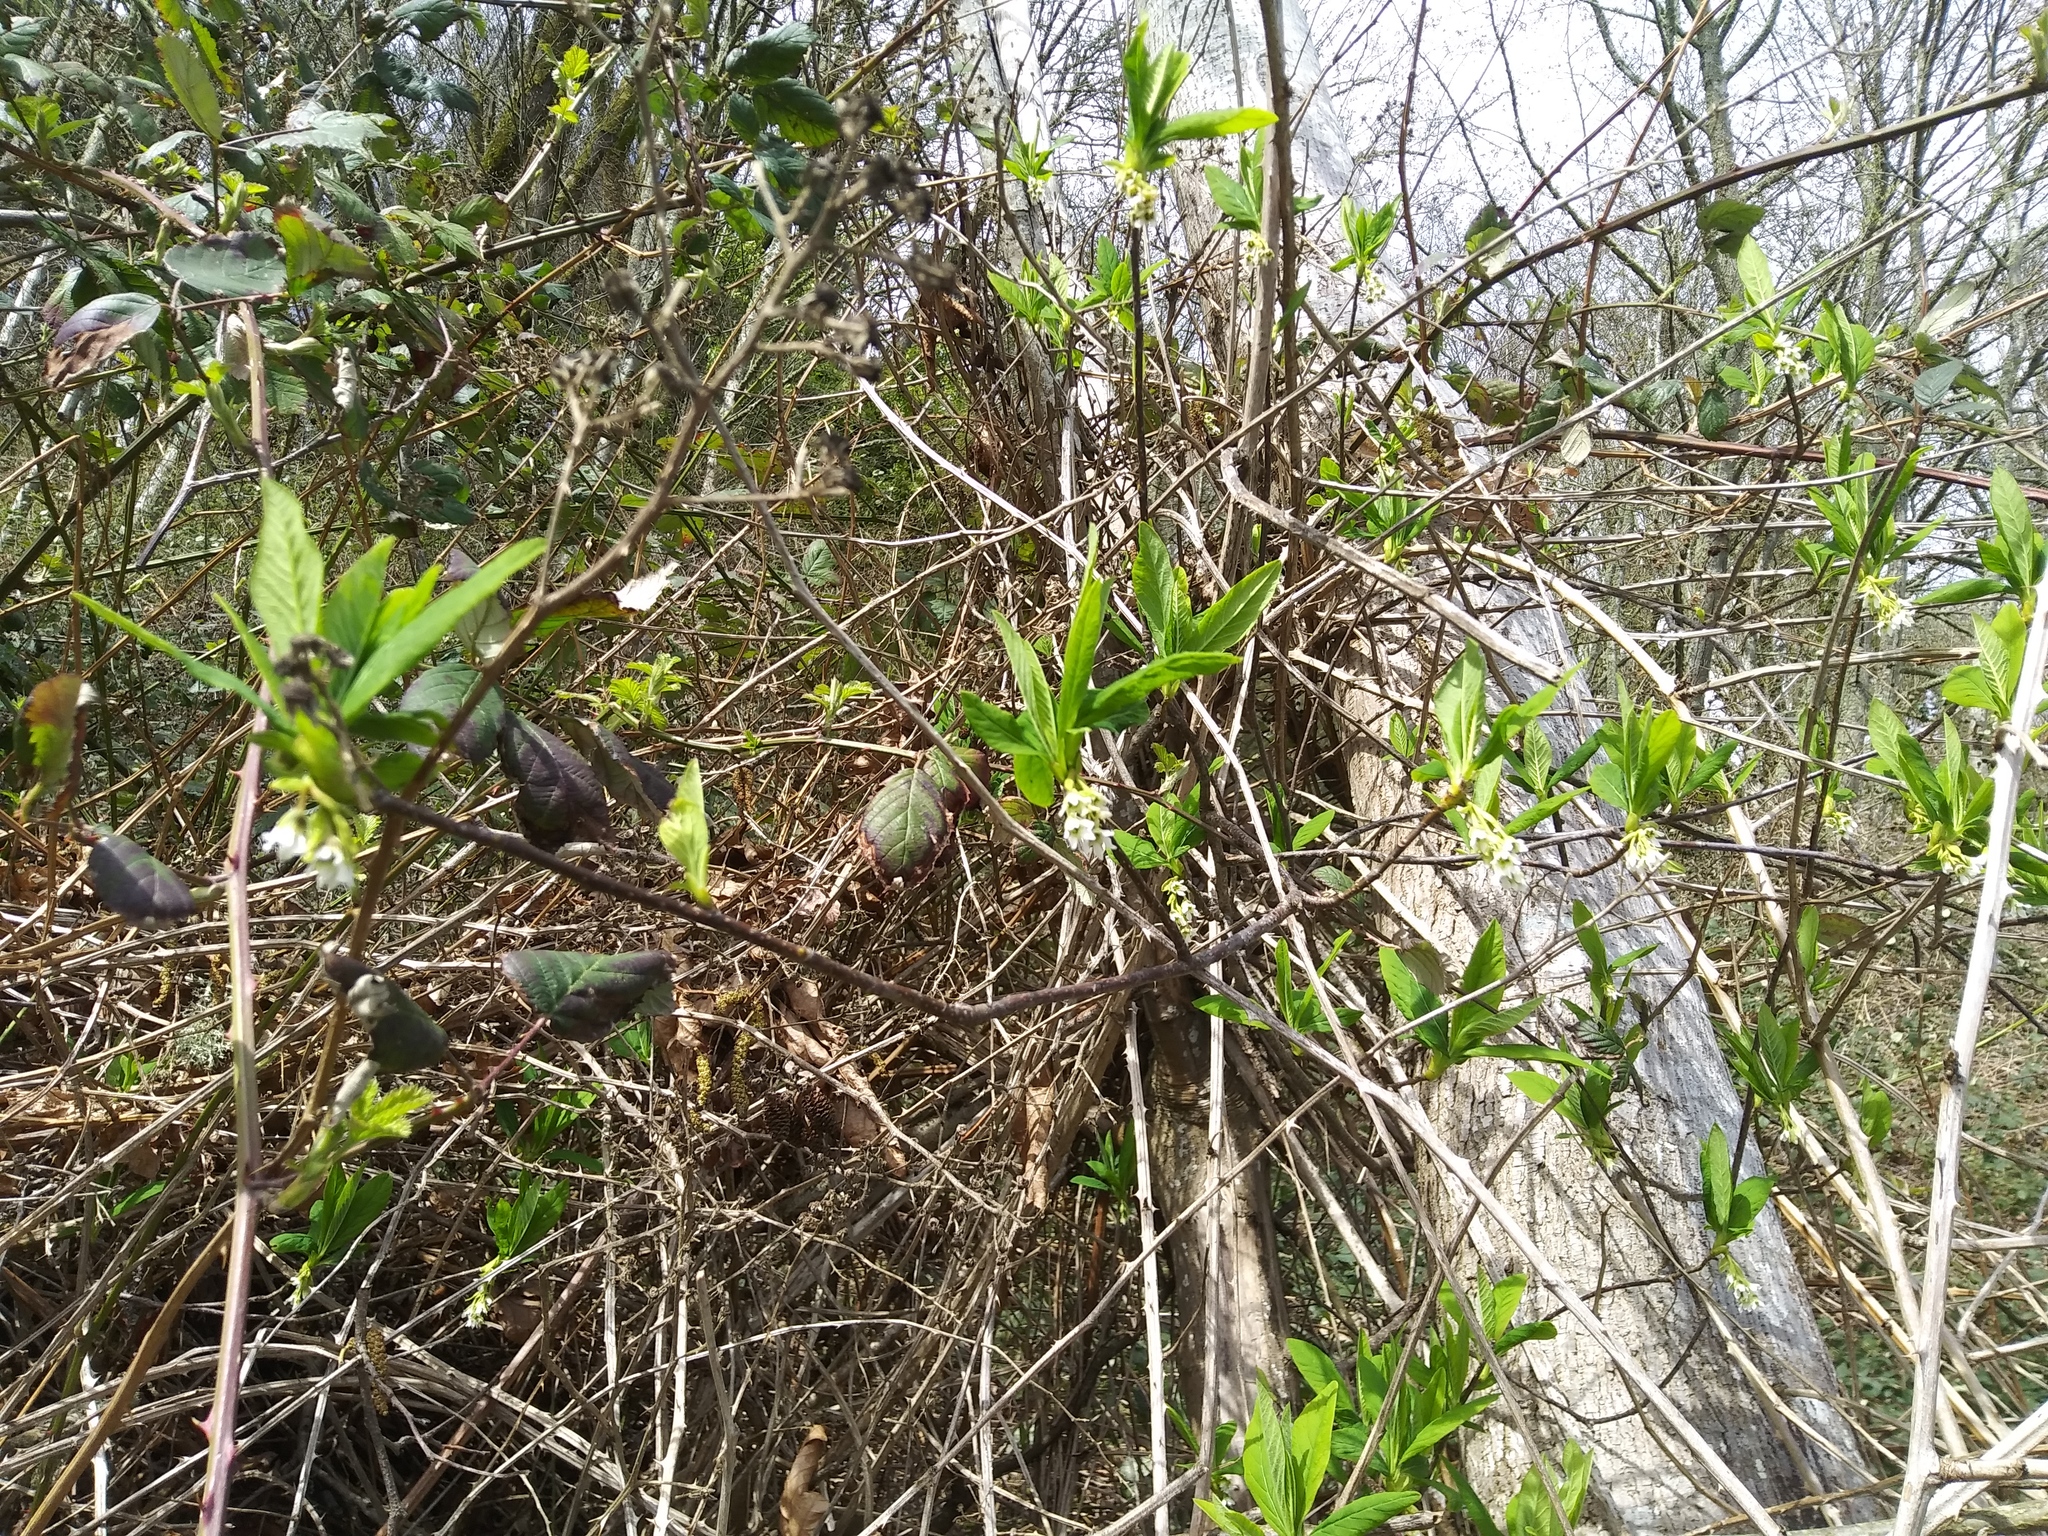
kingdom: Plantae
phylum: Tracheophyta
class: Magnoliopsida
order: Rosales
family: Rosaceae
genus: Oemleria
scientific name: Oemleria cerasiformis
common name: Osoberry
